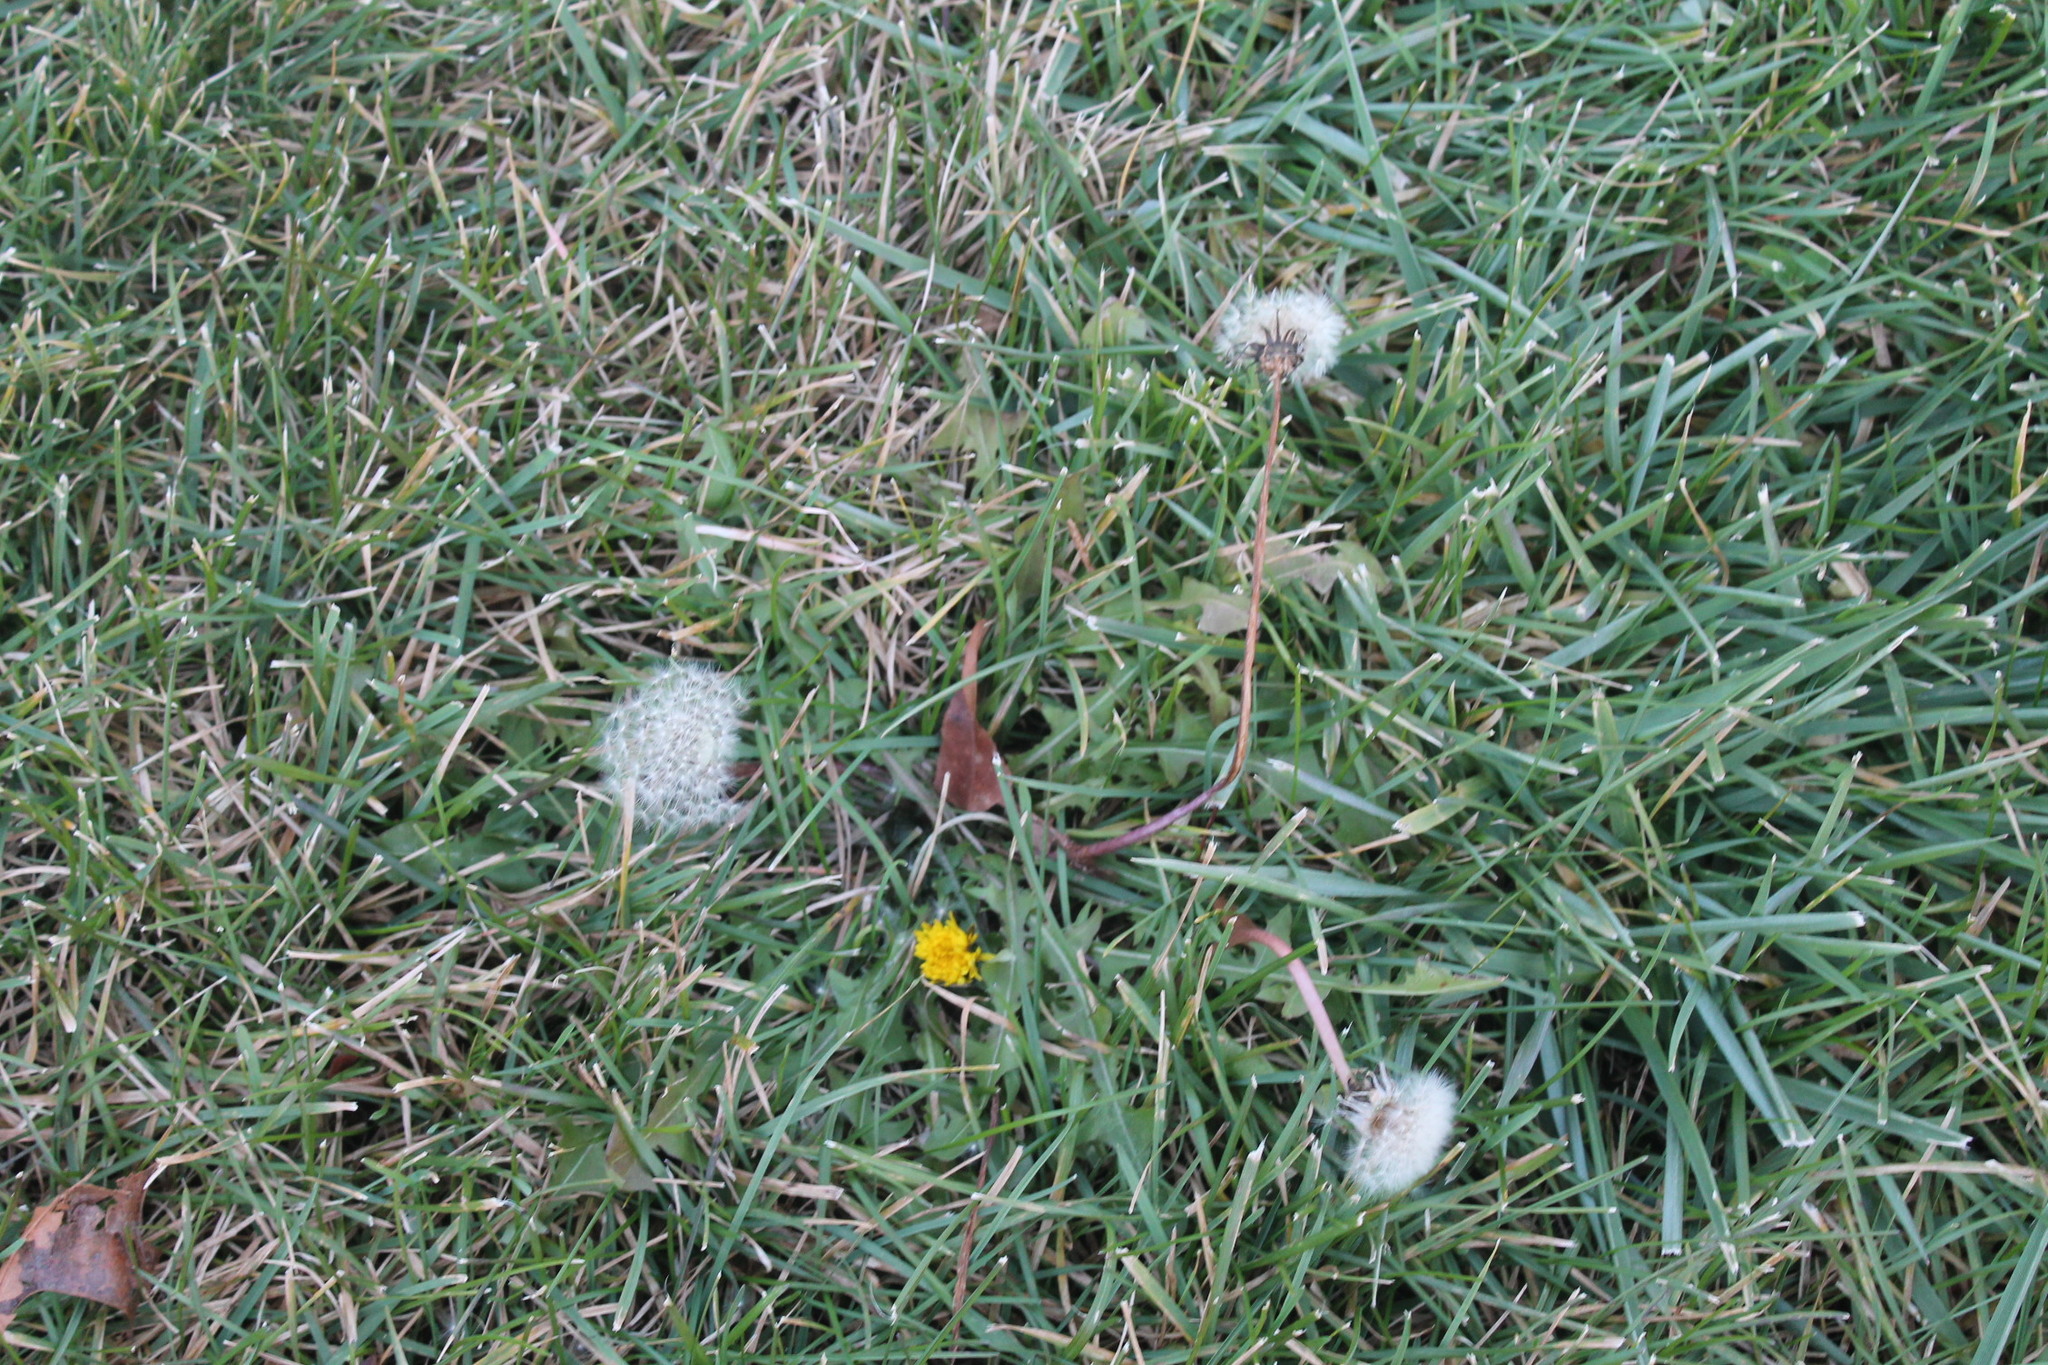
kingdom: Plantae
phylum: Tracheophyta
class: Magnoliopsida
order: Asterales
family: Asteraceae
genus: Taraxacum
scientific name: Taraxacum officinale
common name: Common dandelion
